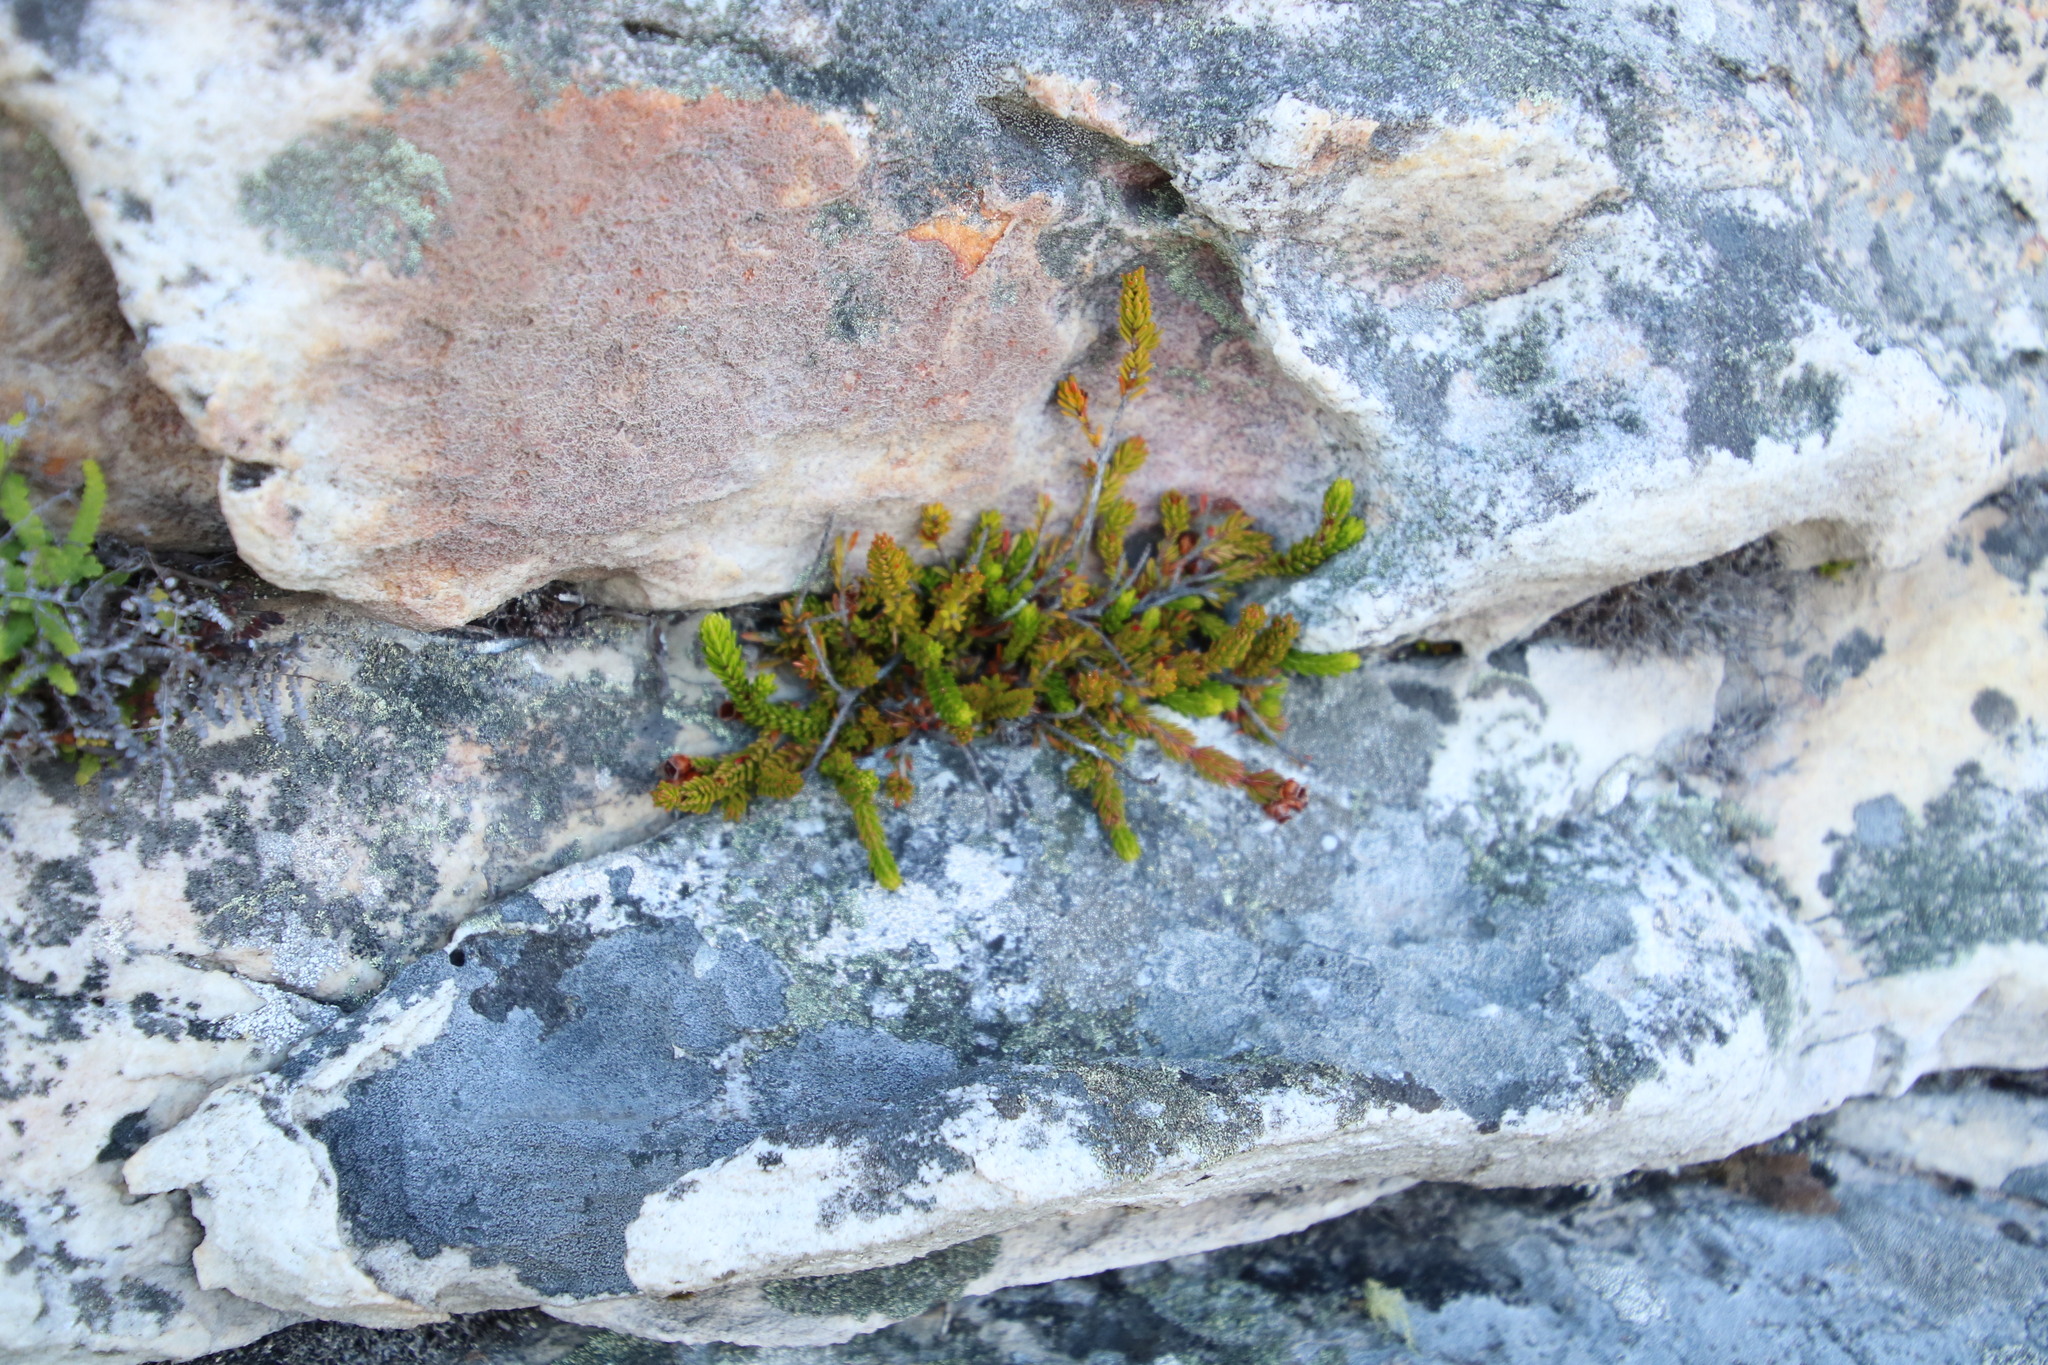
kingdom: Plantae
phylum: Tracheophyta
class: Magnoliopsida
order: Ericales
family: Ericaceae
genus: Erica
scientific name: Erica depressa
